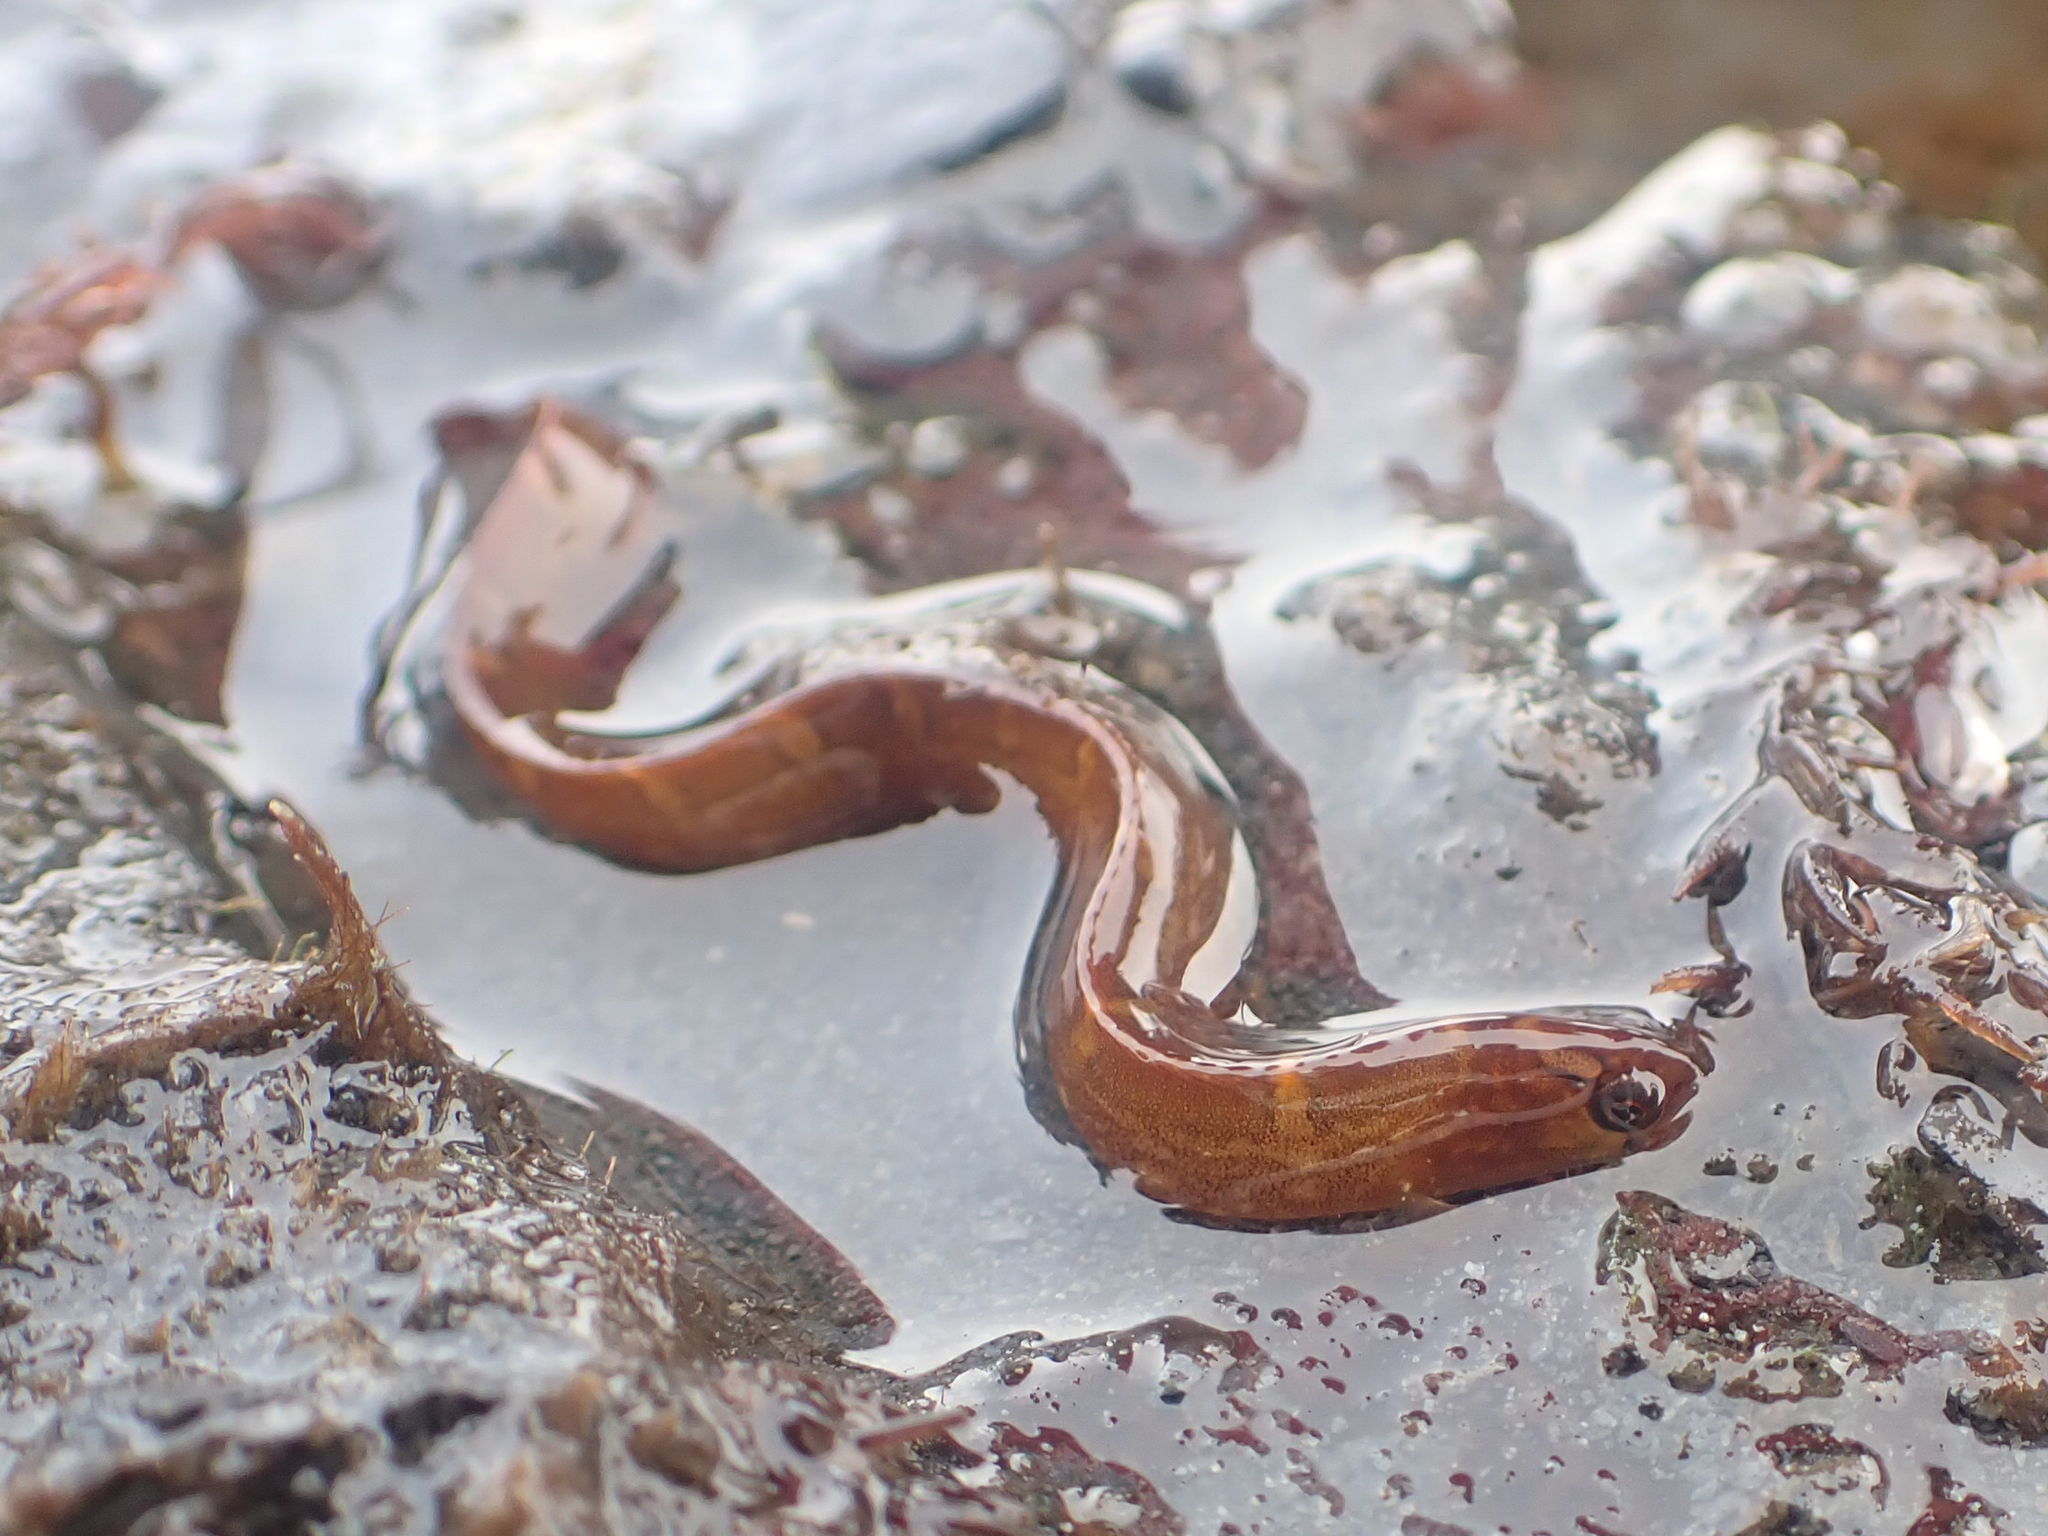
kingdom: Animalia
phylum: Chordata
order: Perciformes
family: Pholidae
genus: Pholis
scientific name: Pholis laeta
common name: Crescent gunnel
